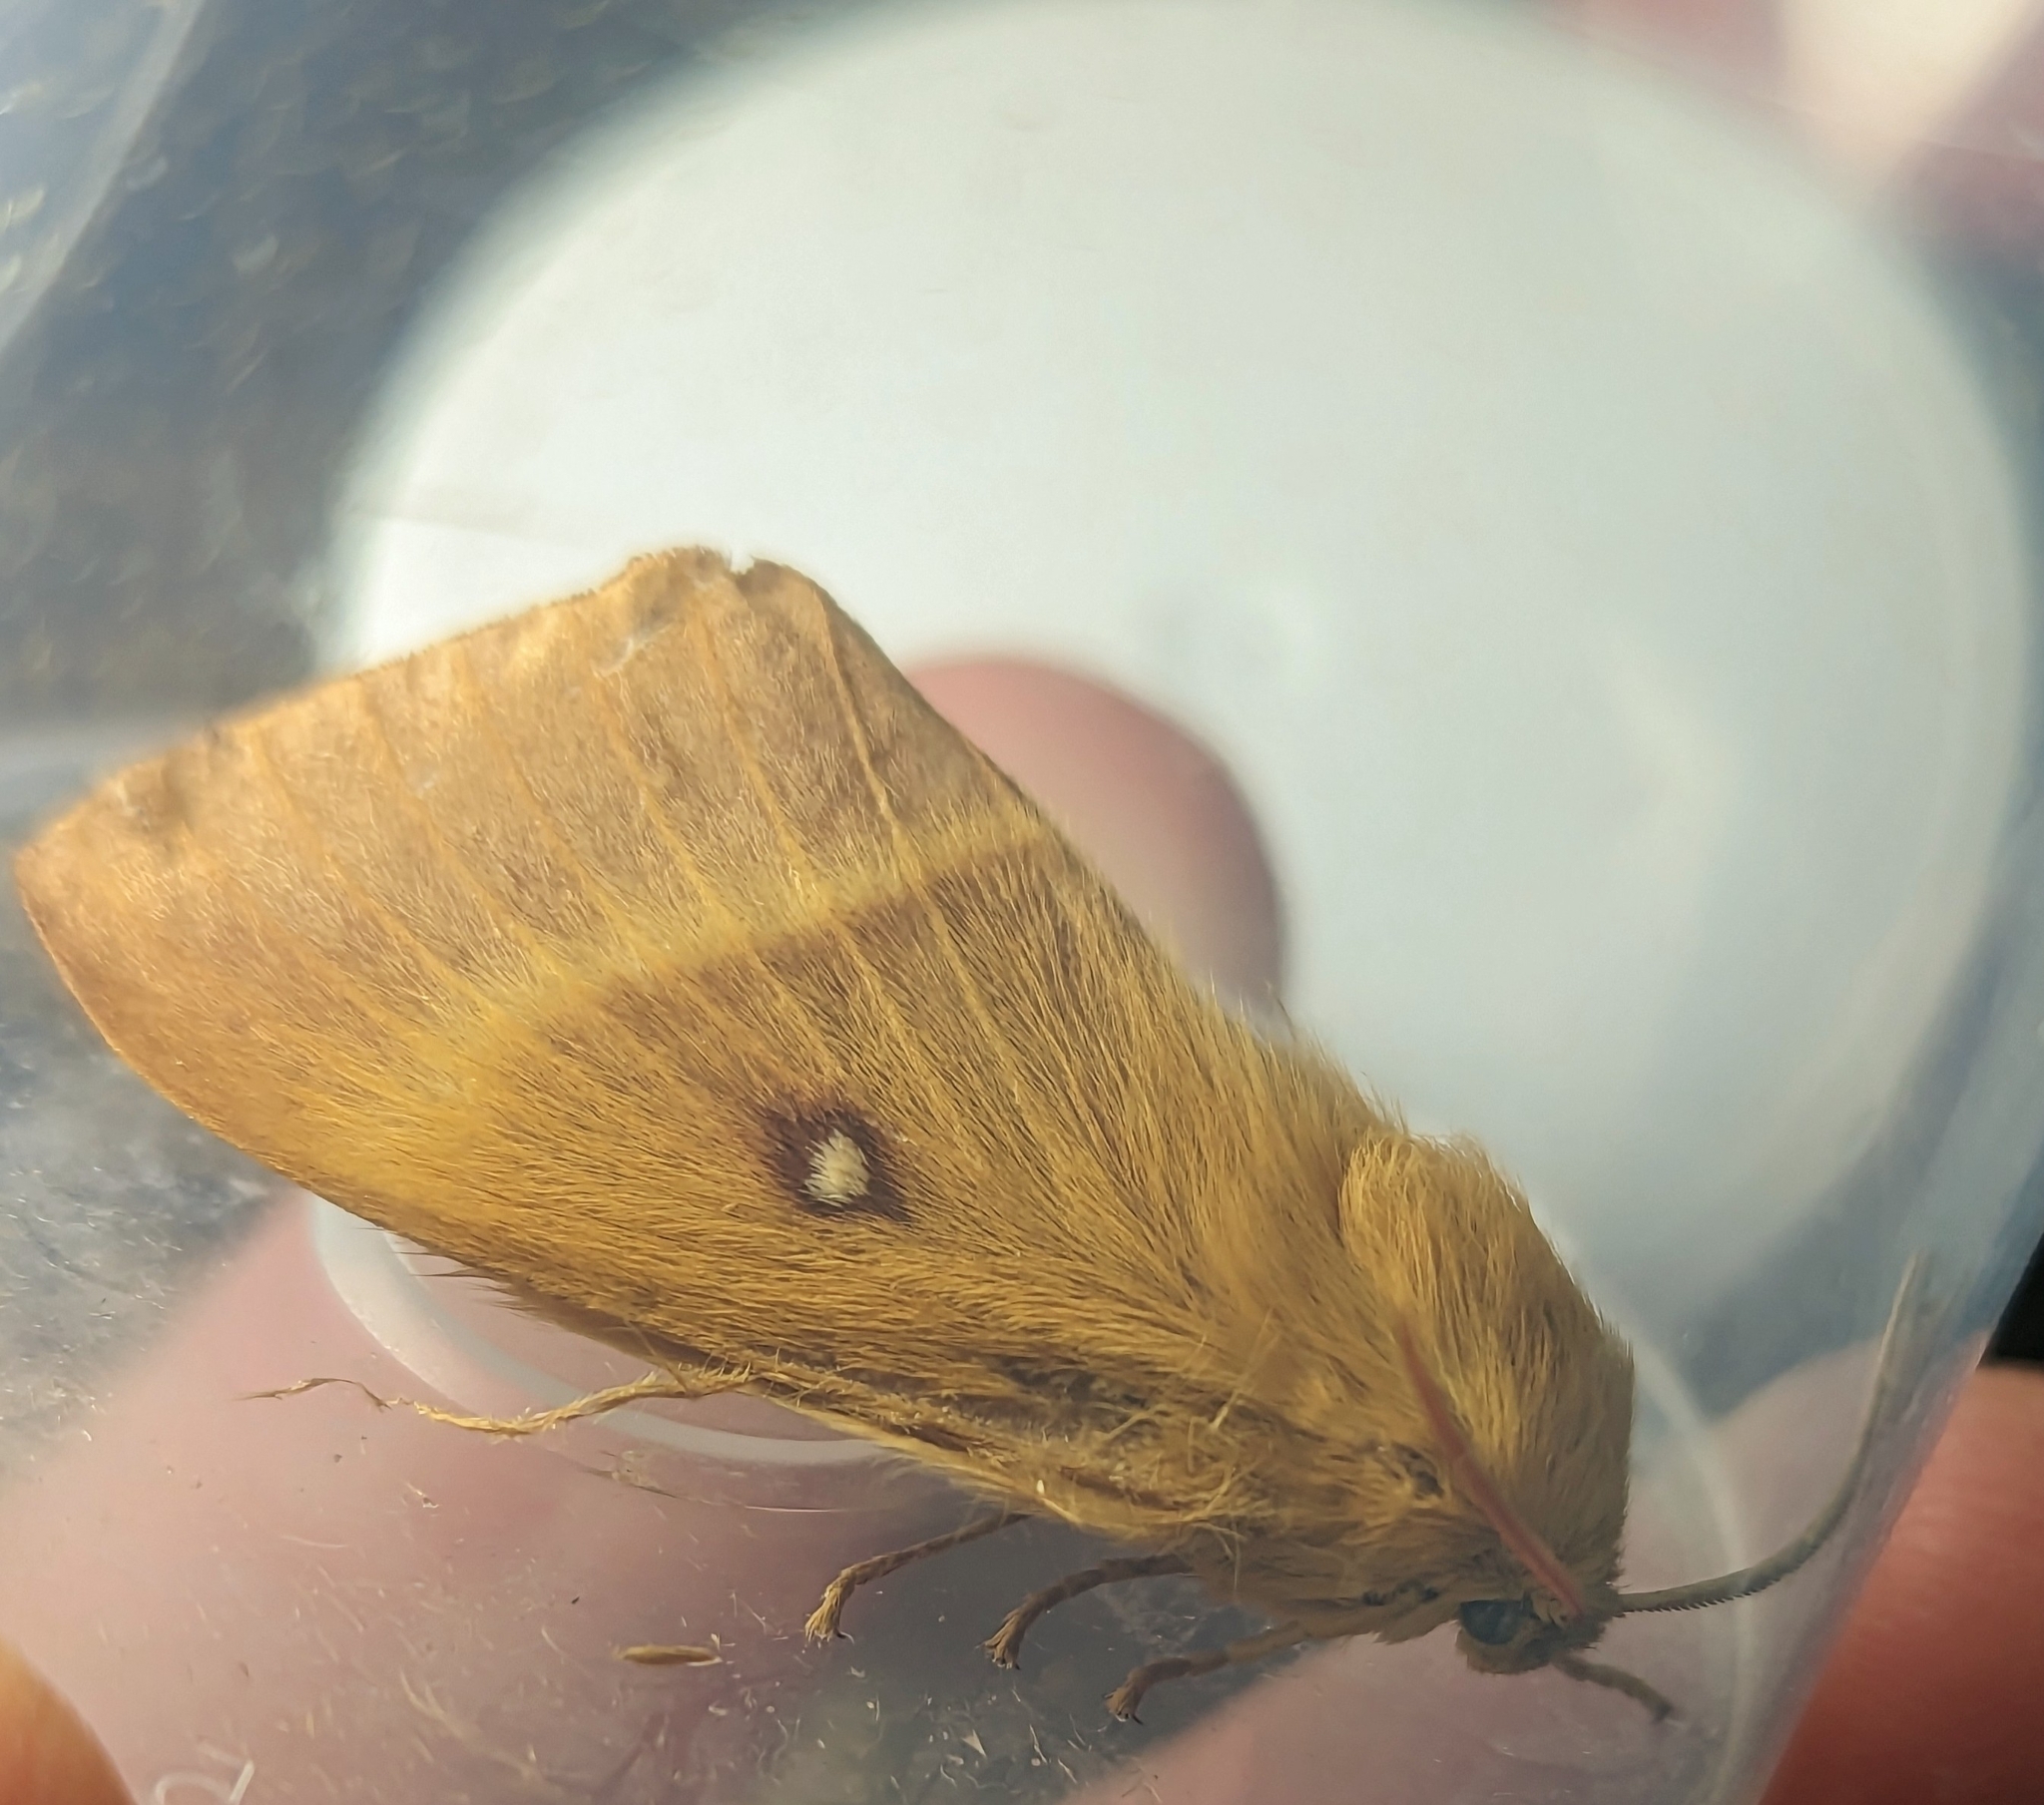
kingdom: Animalia
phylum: Arthropoda
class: Insecta
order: Lepidoptera
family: Lasiocampidae
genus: Lasiocampa
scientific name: Lasiocampa quercus
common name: Oak eggar
